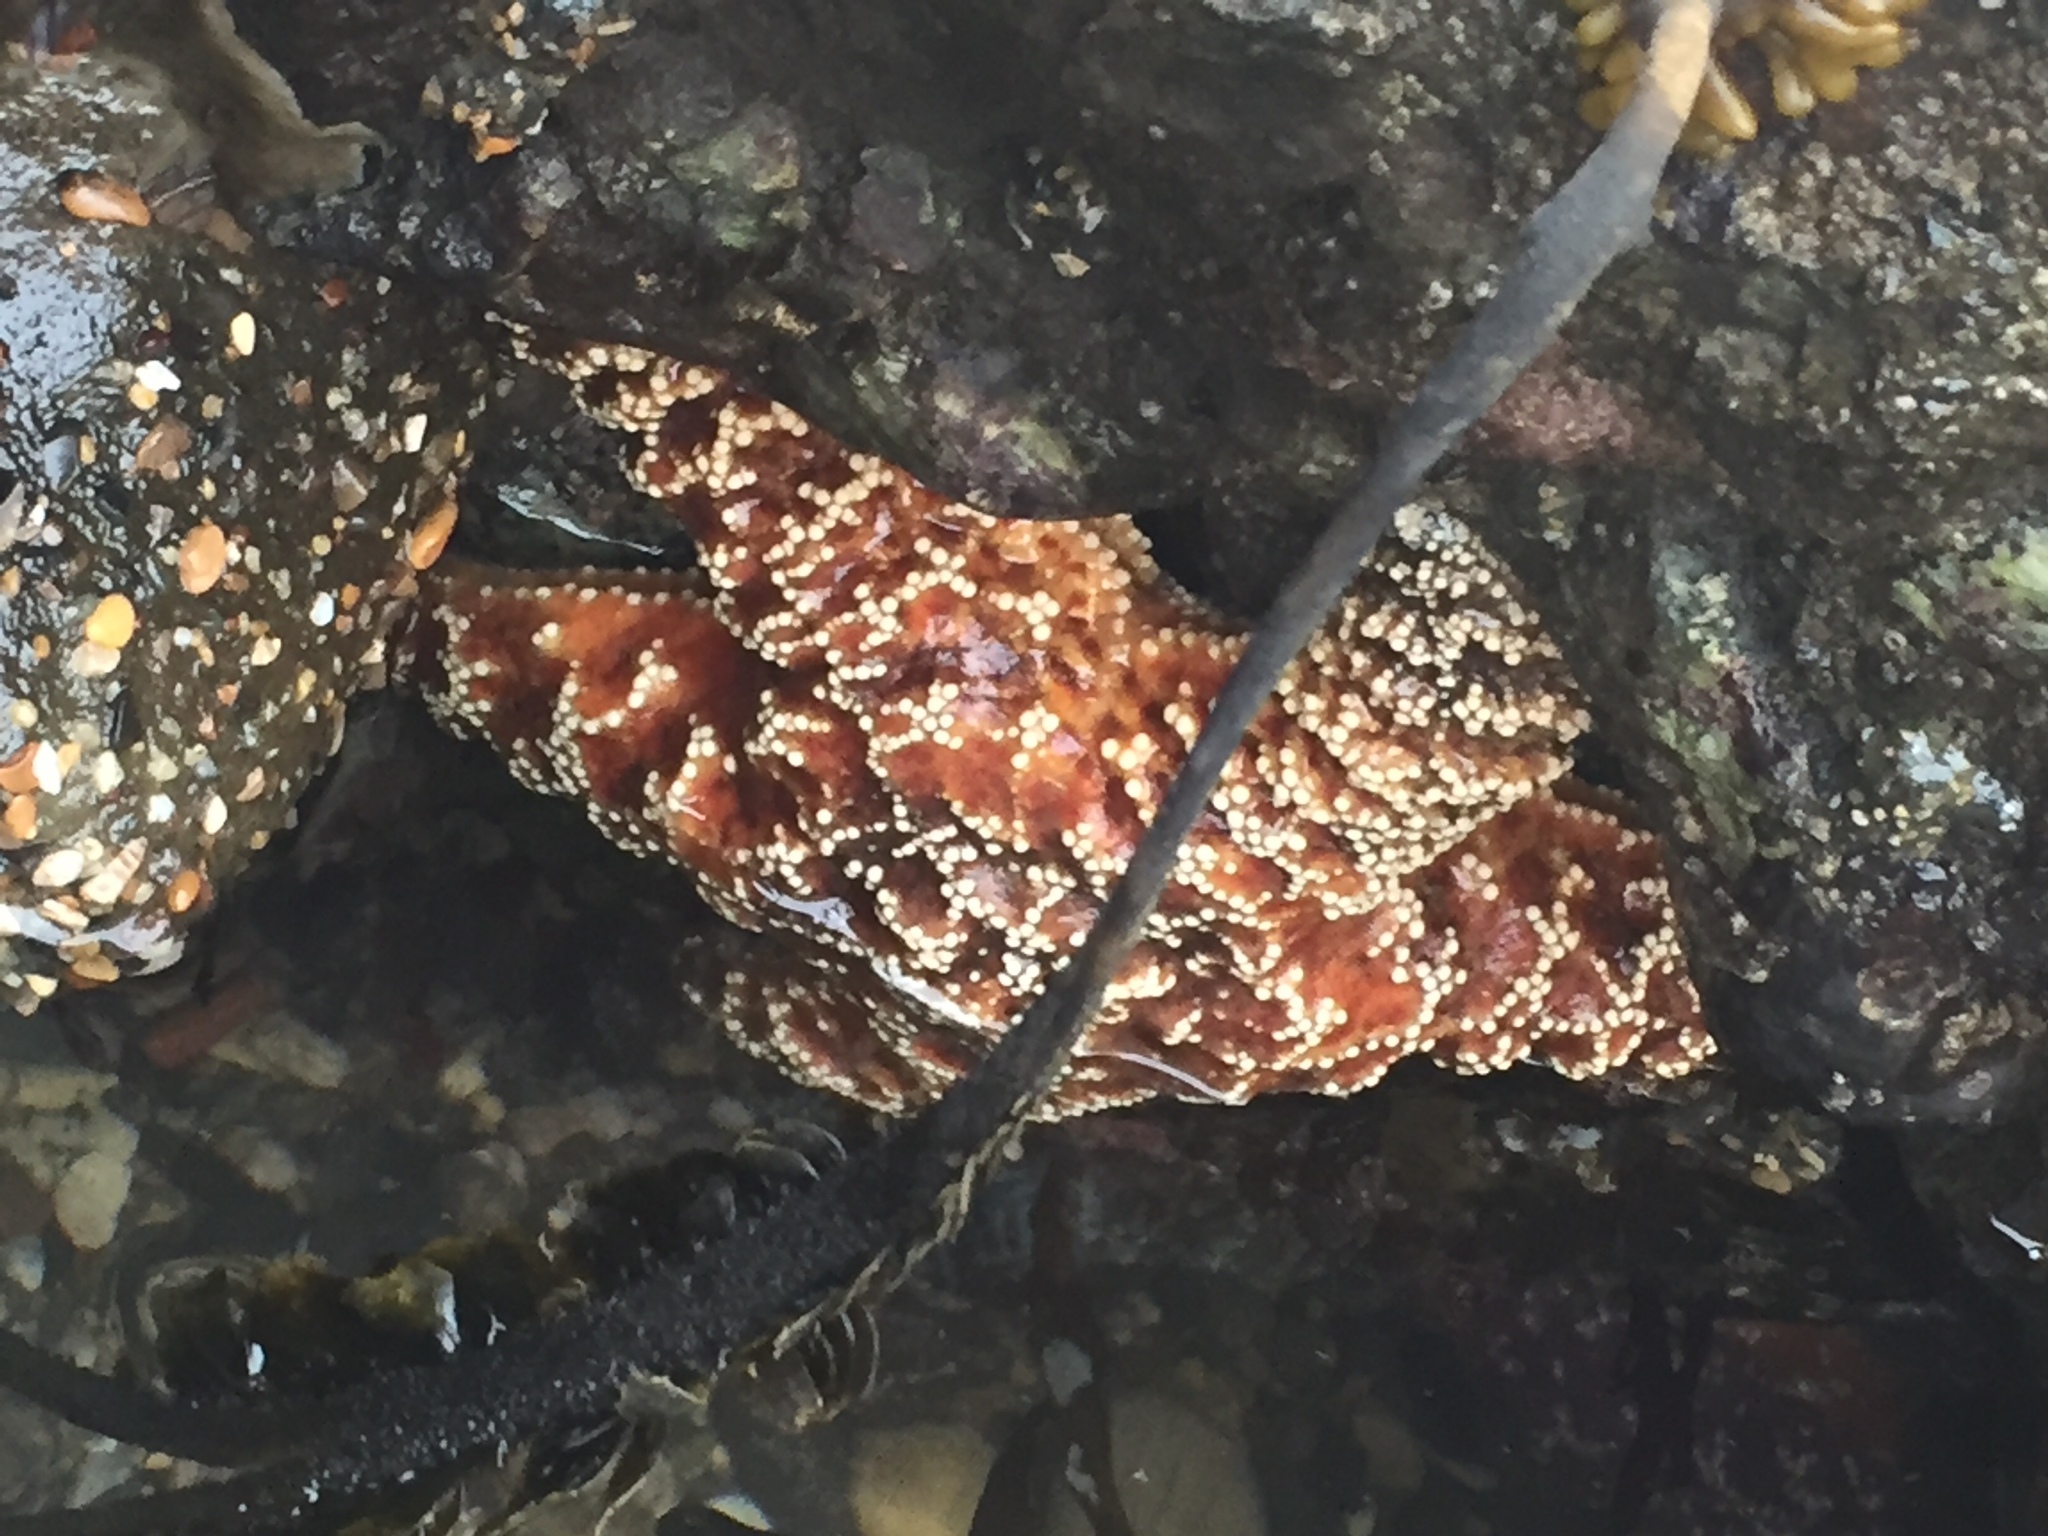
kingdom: Animalia
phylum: Echinodermata
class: Asteroidea
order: Forcipulatida
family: Asteriidae
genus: Pisaster
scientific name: Pisaster ochraceus
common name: Ochre stars
